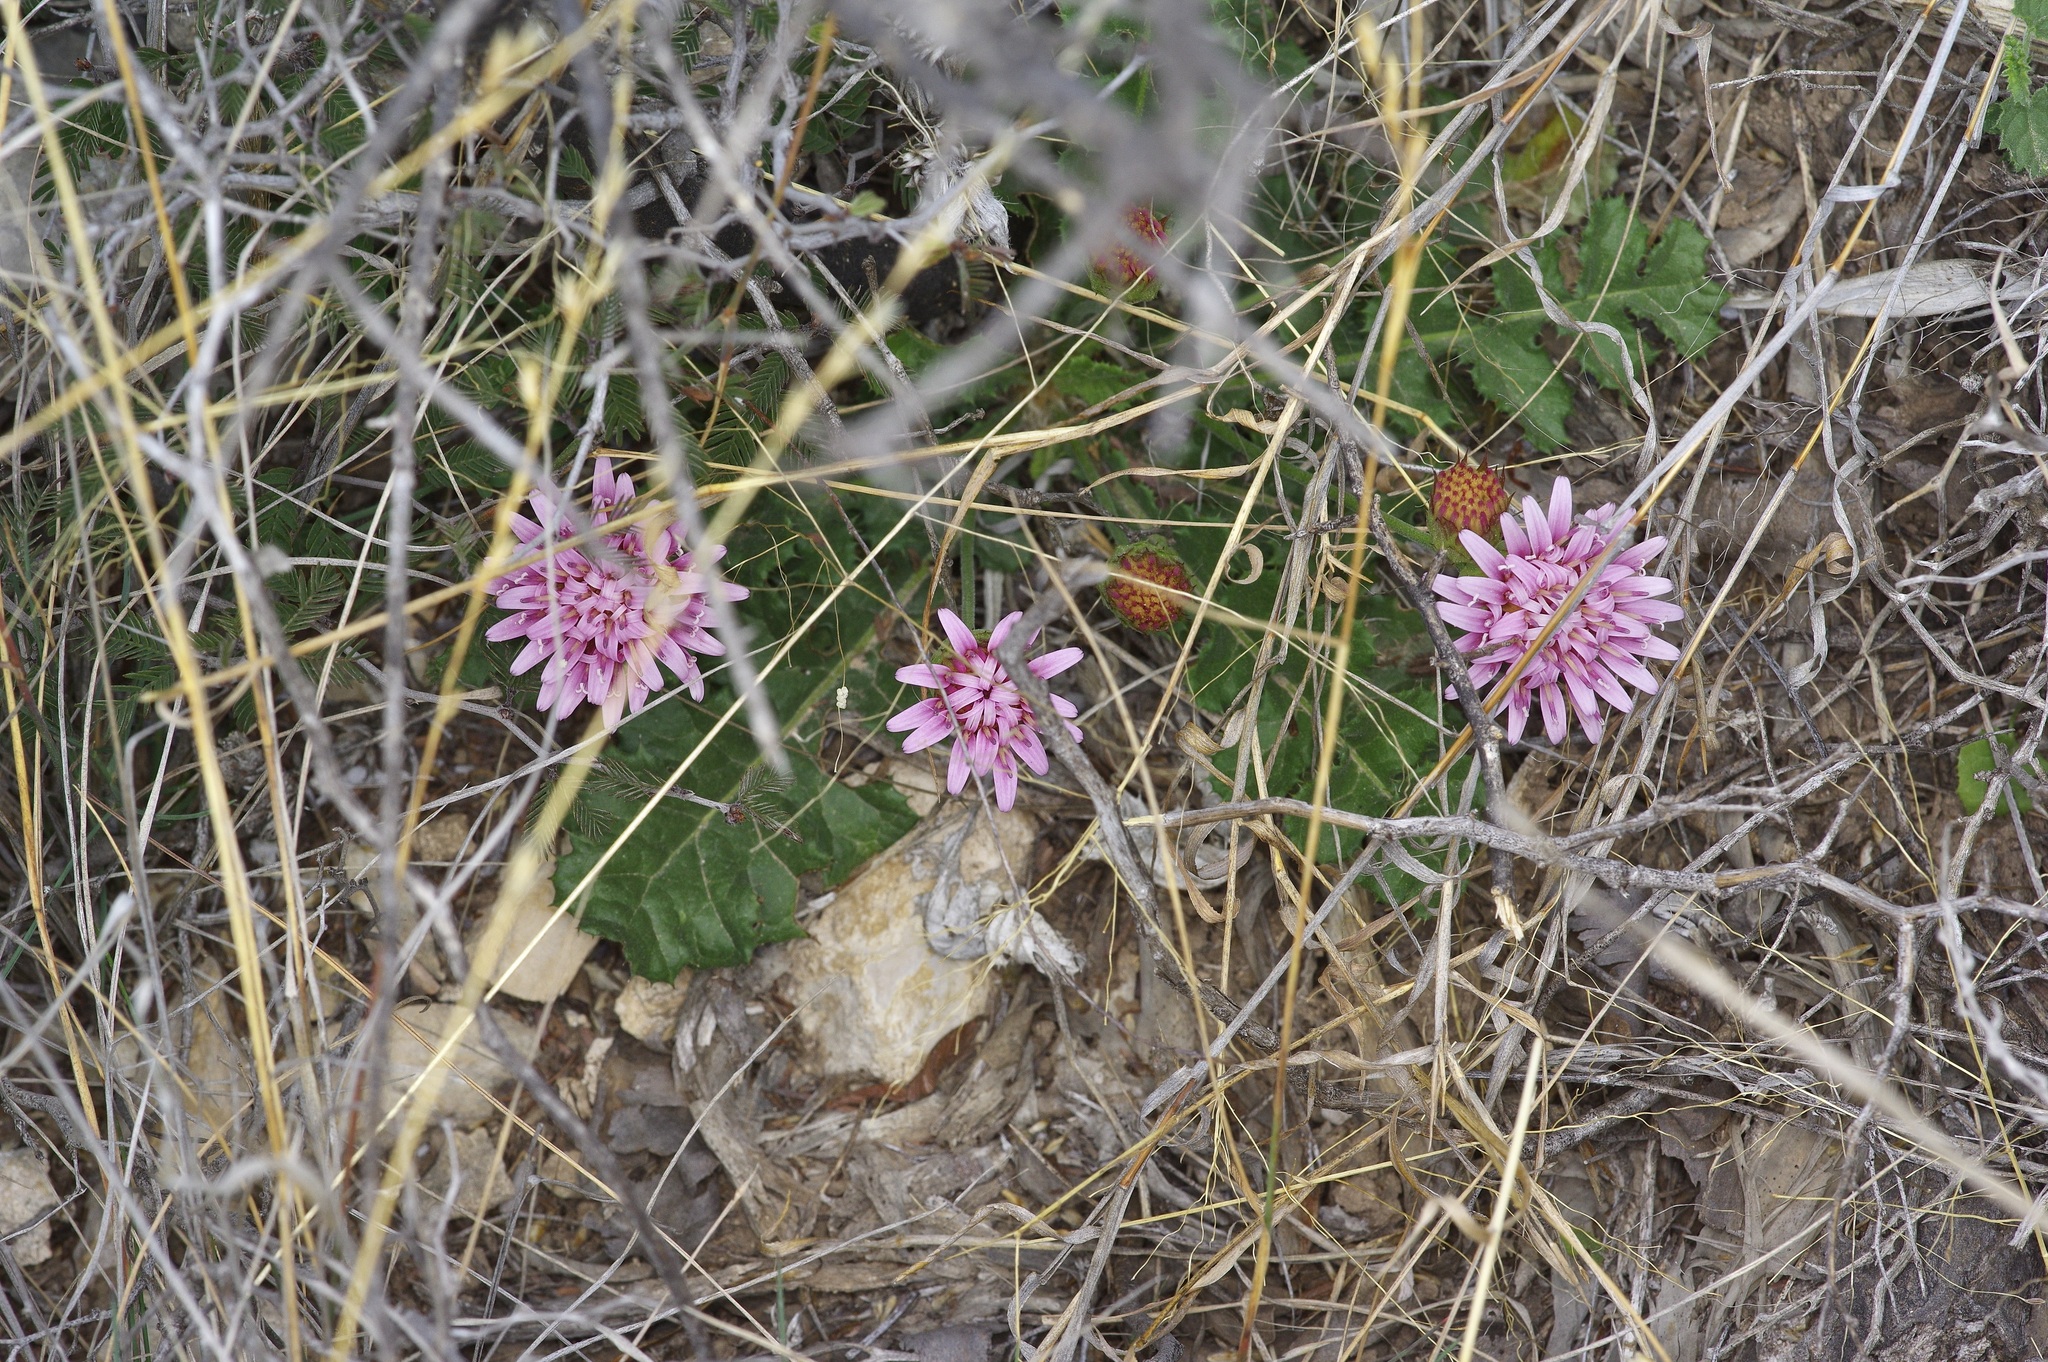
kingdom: Plantae
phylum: Tracheophyta
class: Magnoliopsida
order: Asterales
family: Asteraceae
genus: Acourtia
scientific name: Acourtia runcinata
